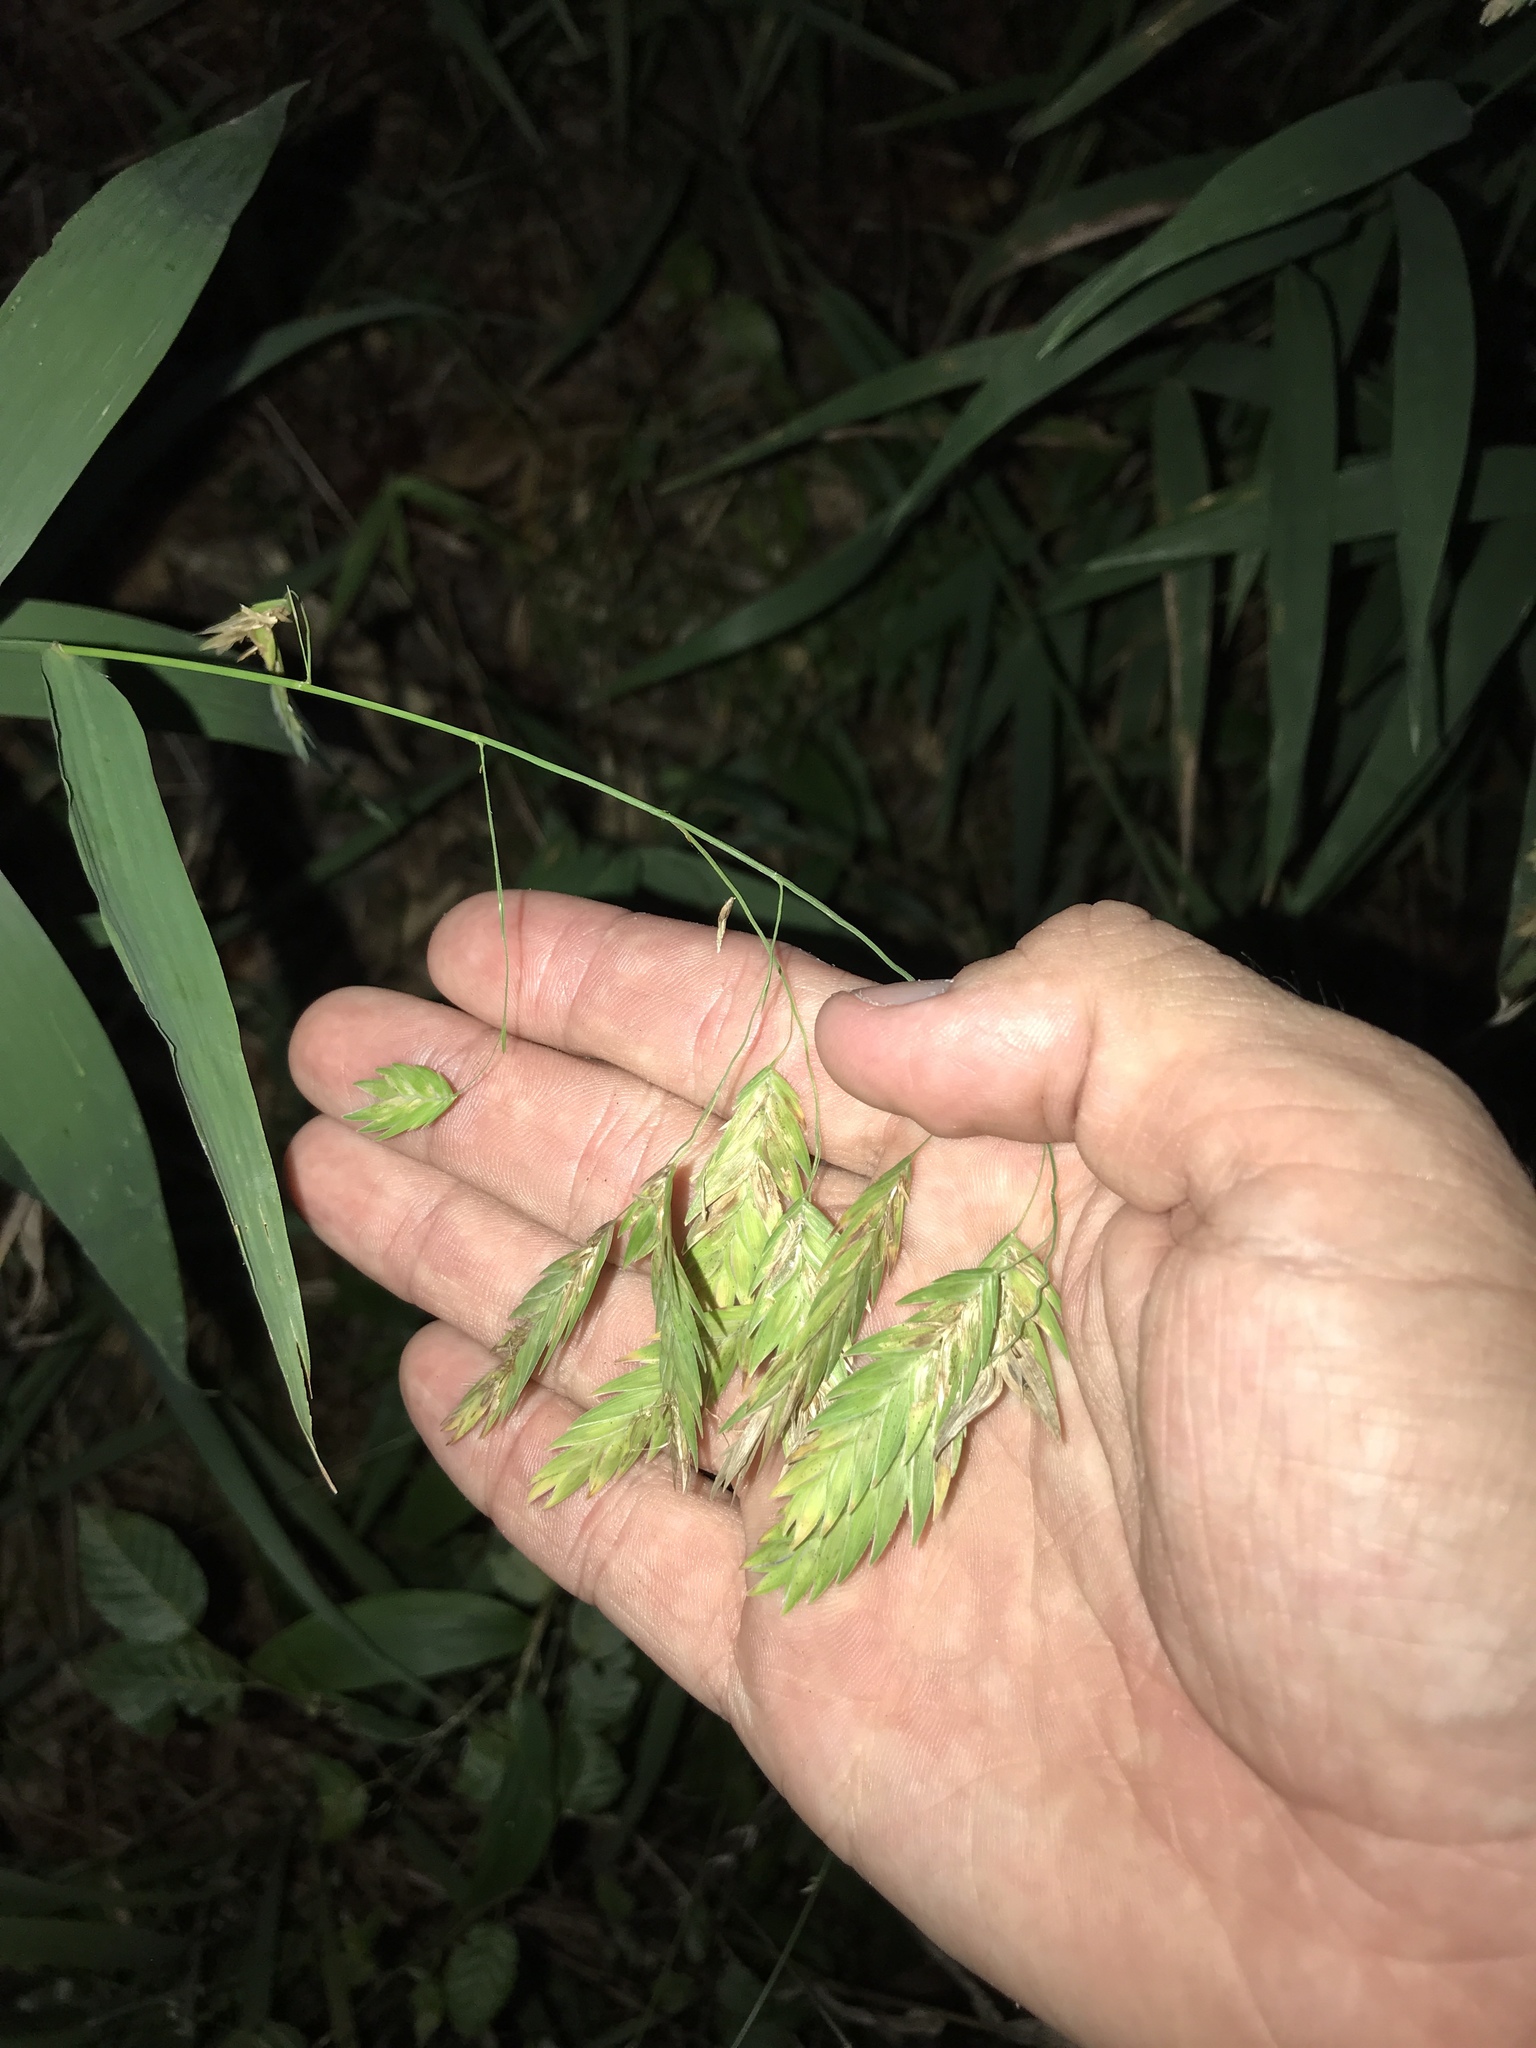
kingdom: Plantae
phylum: Tracheophyta
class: Liliopsida
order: Poales
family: Poaceae
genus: Chasmanthium
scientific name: Chasmanthium latifolium
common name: Broad-leaved chasmanthium
